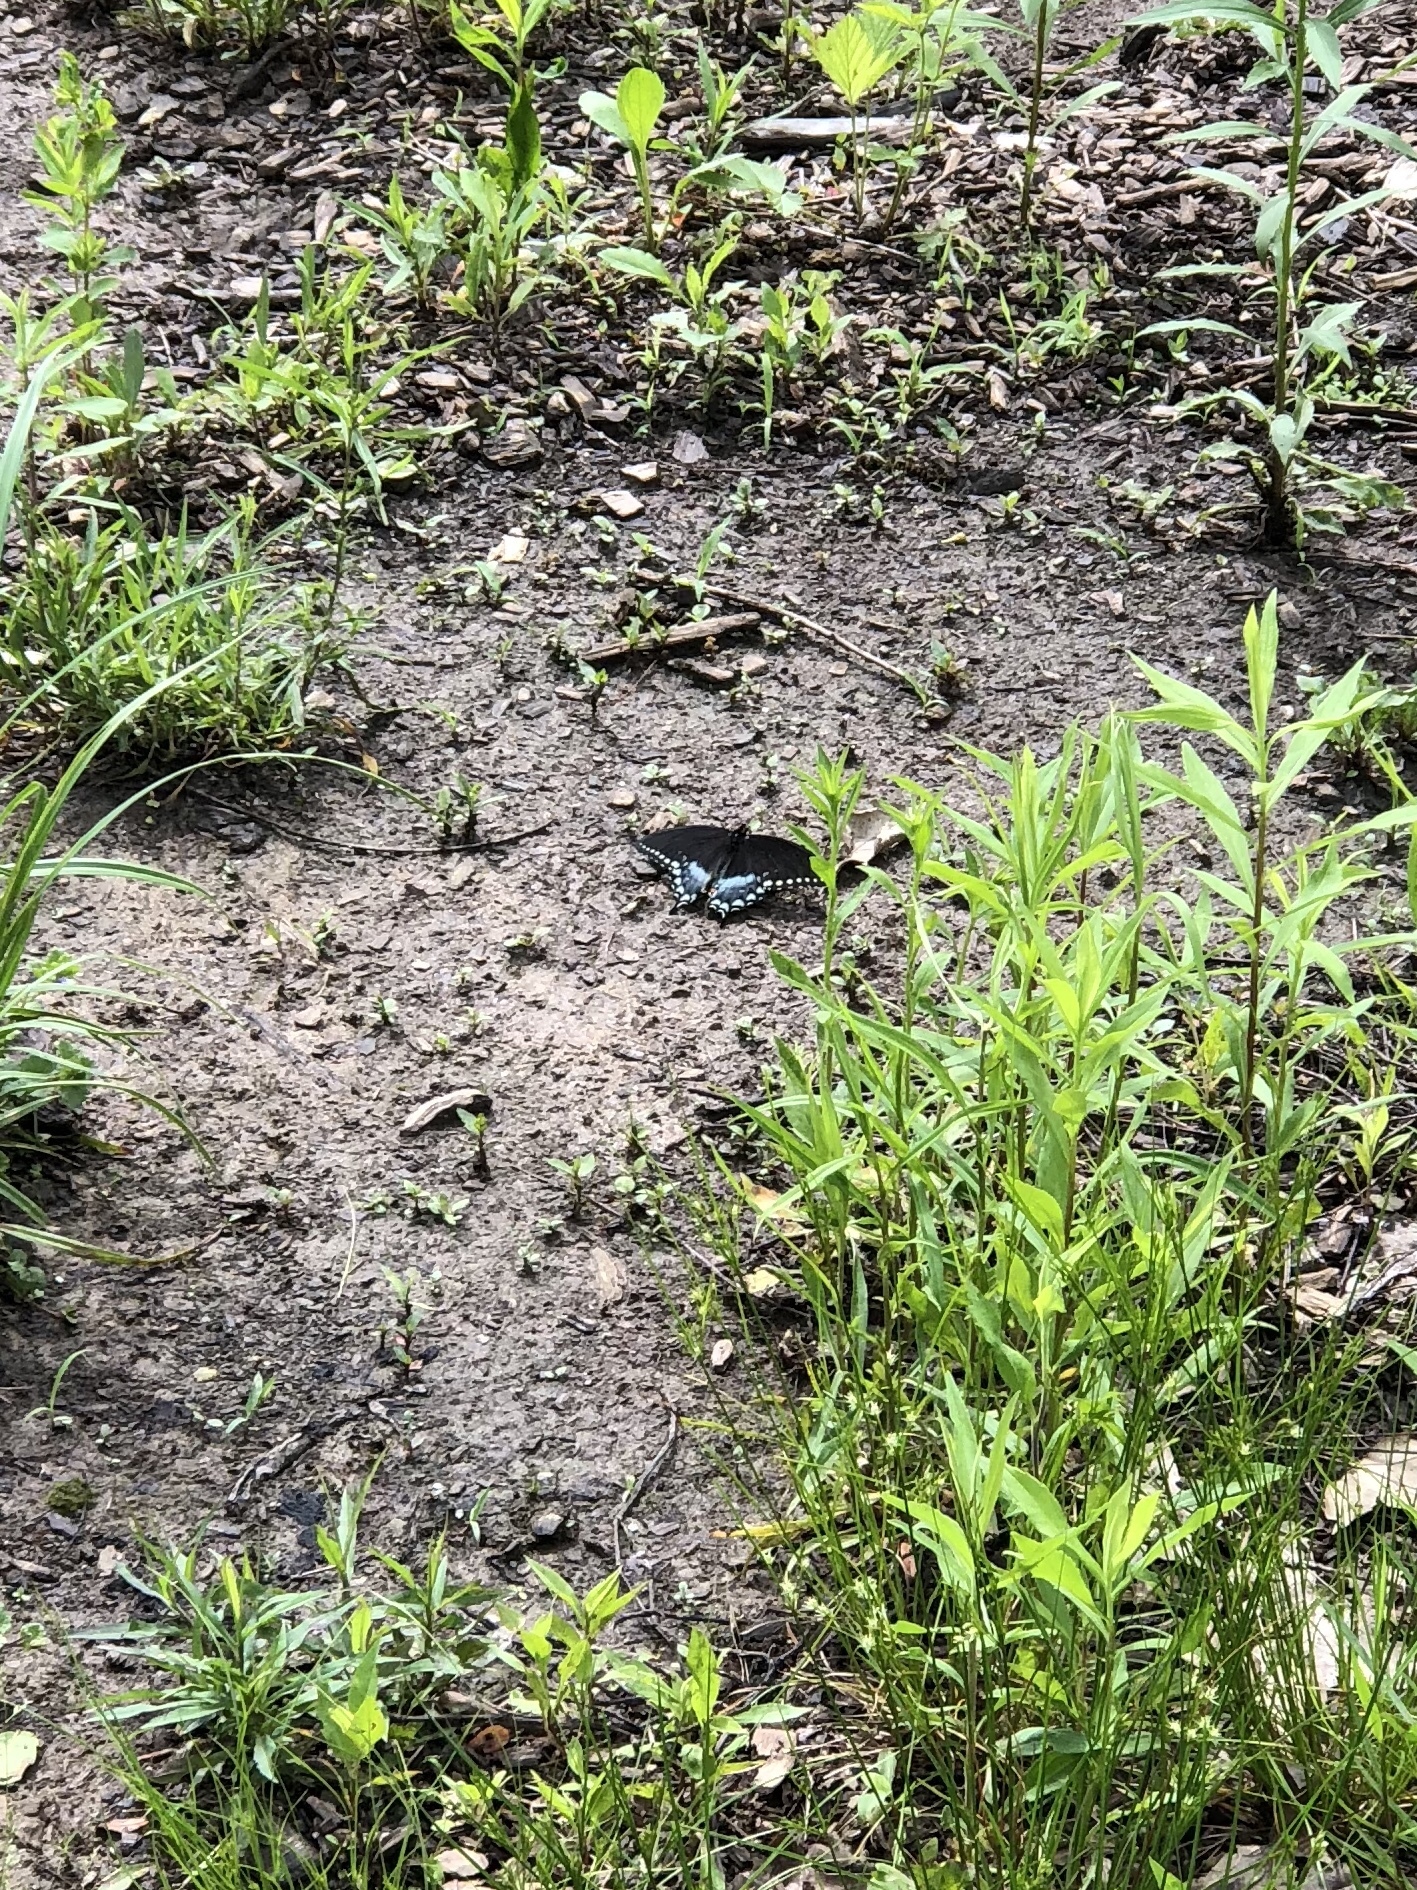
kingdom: Animalia
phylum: Arthropoda
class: Insecta
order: Lepidoptera
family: Papilionidae
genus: Papilio
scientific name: Papilio troilus
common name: Spicebush swallowtail
